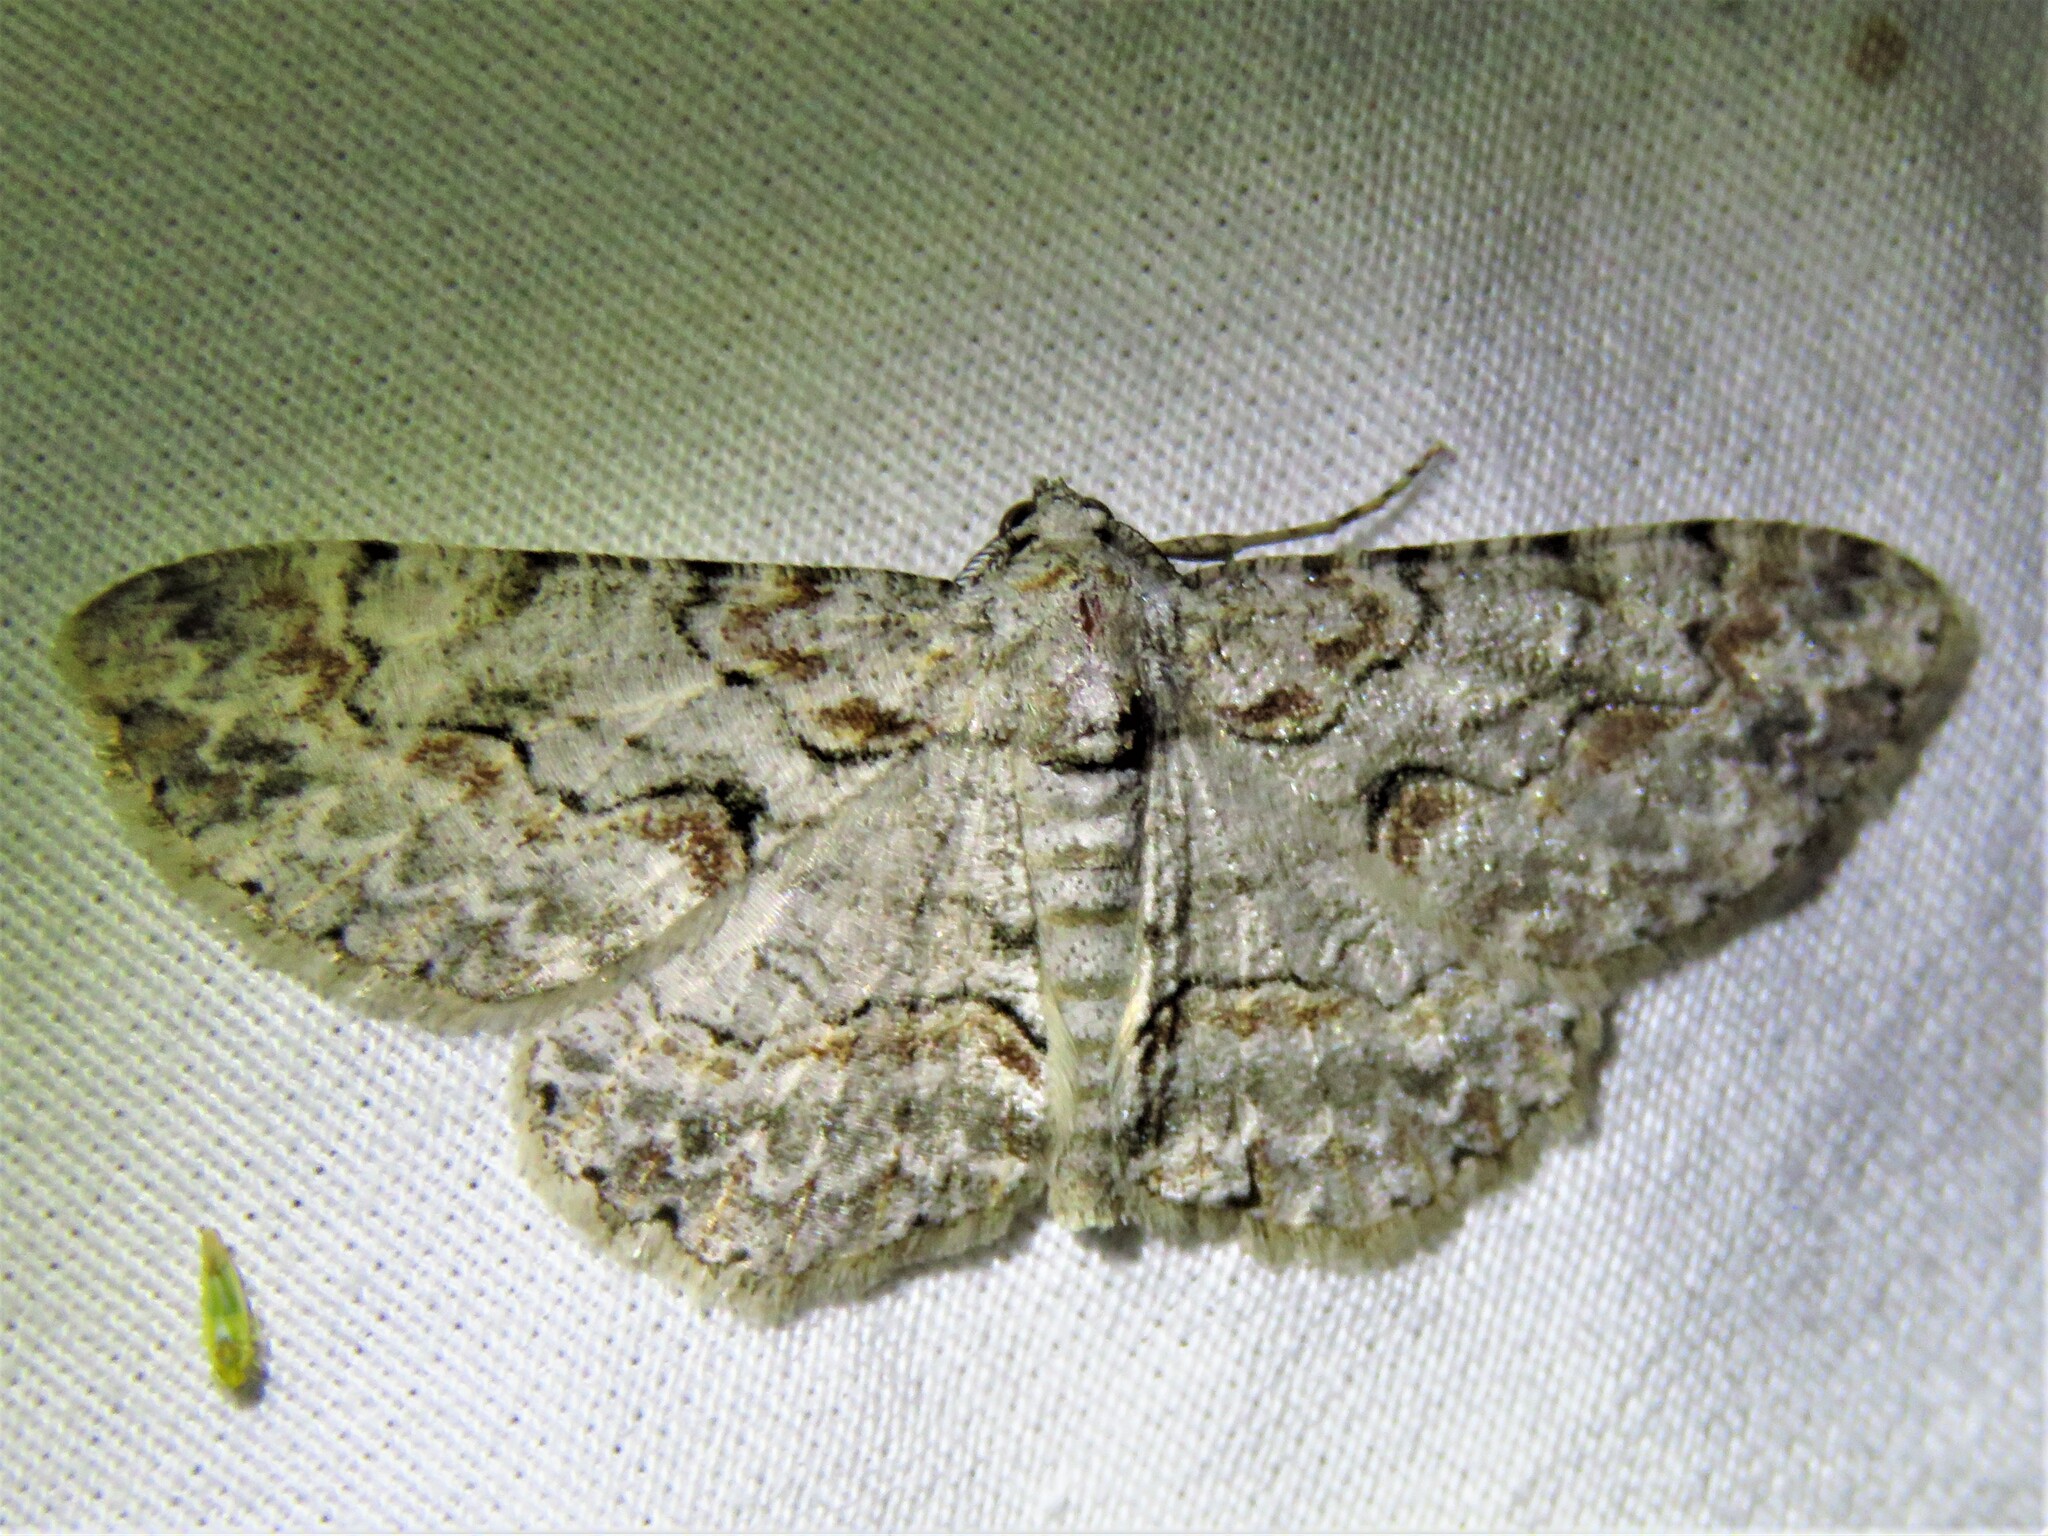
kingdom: Animalia
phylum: Arthropoda
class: Insecta
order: Lepidoptera
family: Geometridae
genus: Iridopsis
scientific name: Iridopsis defectaria
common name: Brown-shaded gray
